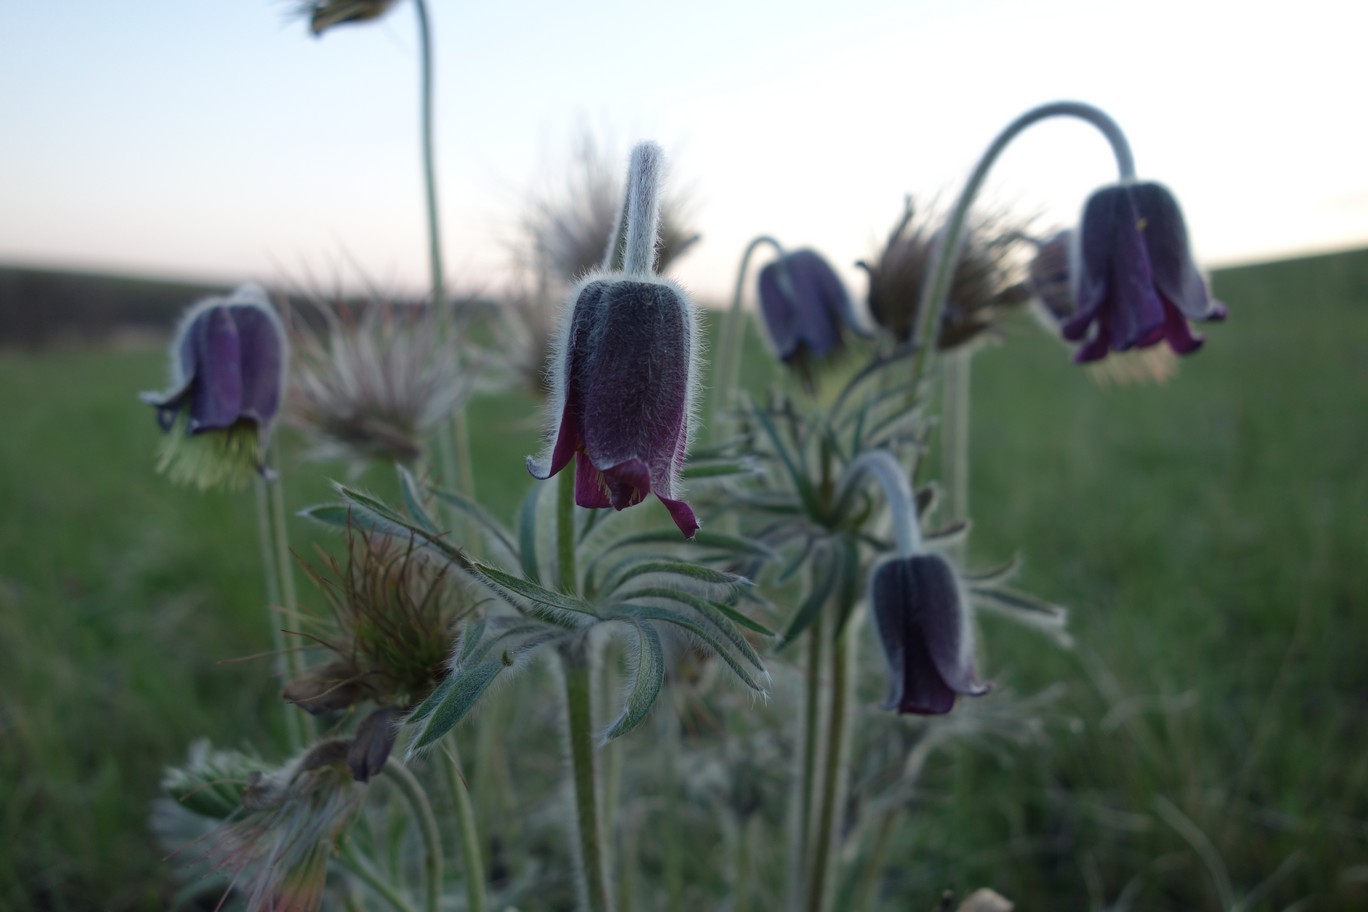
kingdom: Plantae
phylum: Tracheophyta
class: Magnoliopsida
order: Ranunculales
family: Ranunculaceae
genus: Pulsatilla
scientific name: Pulsatilla pratensis
